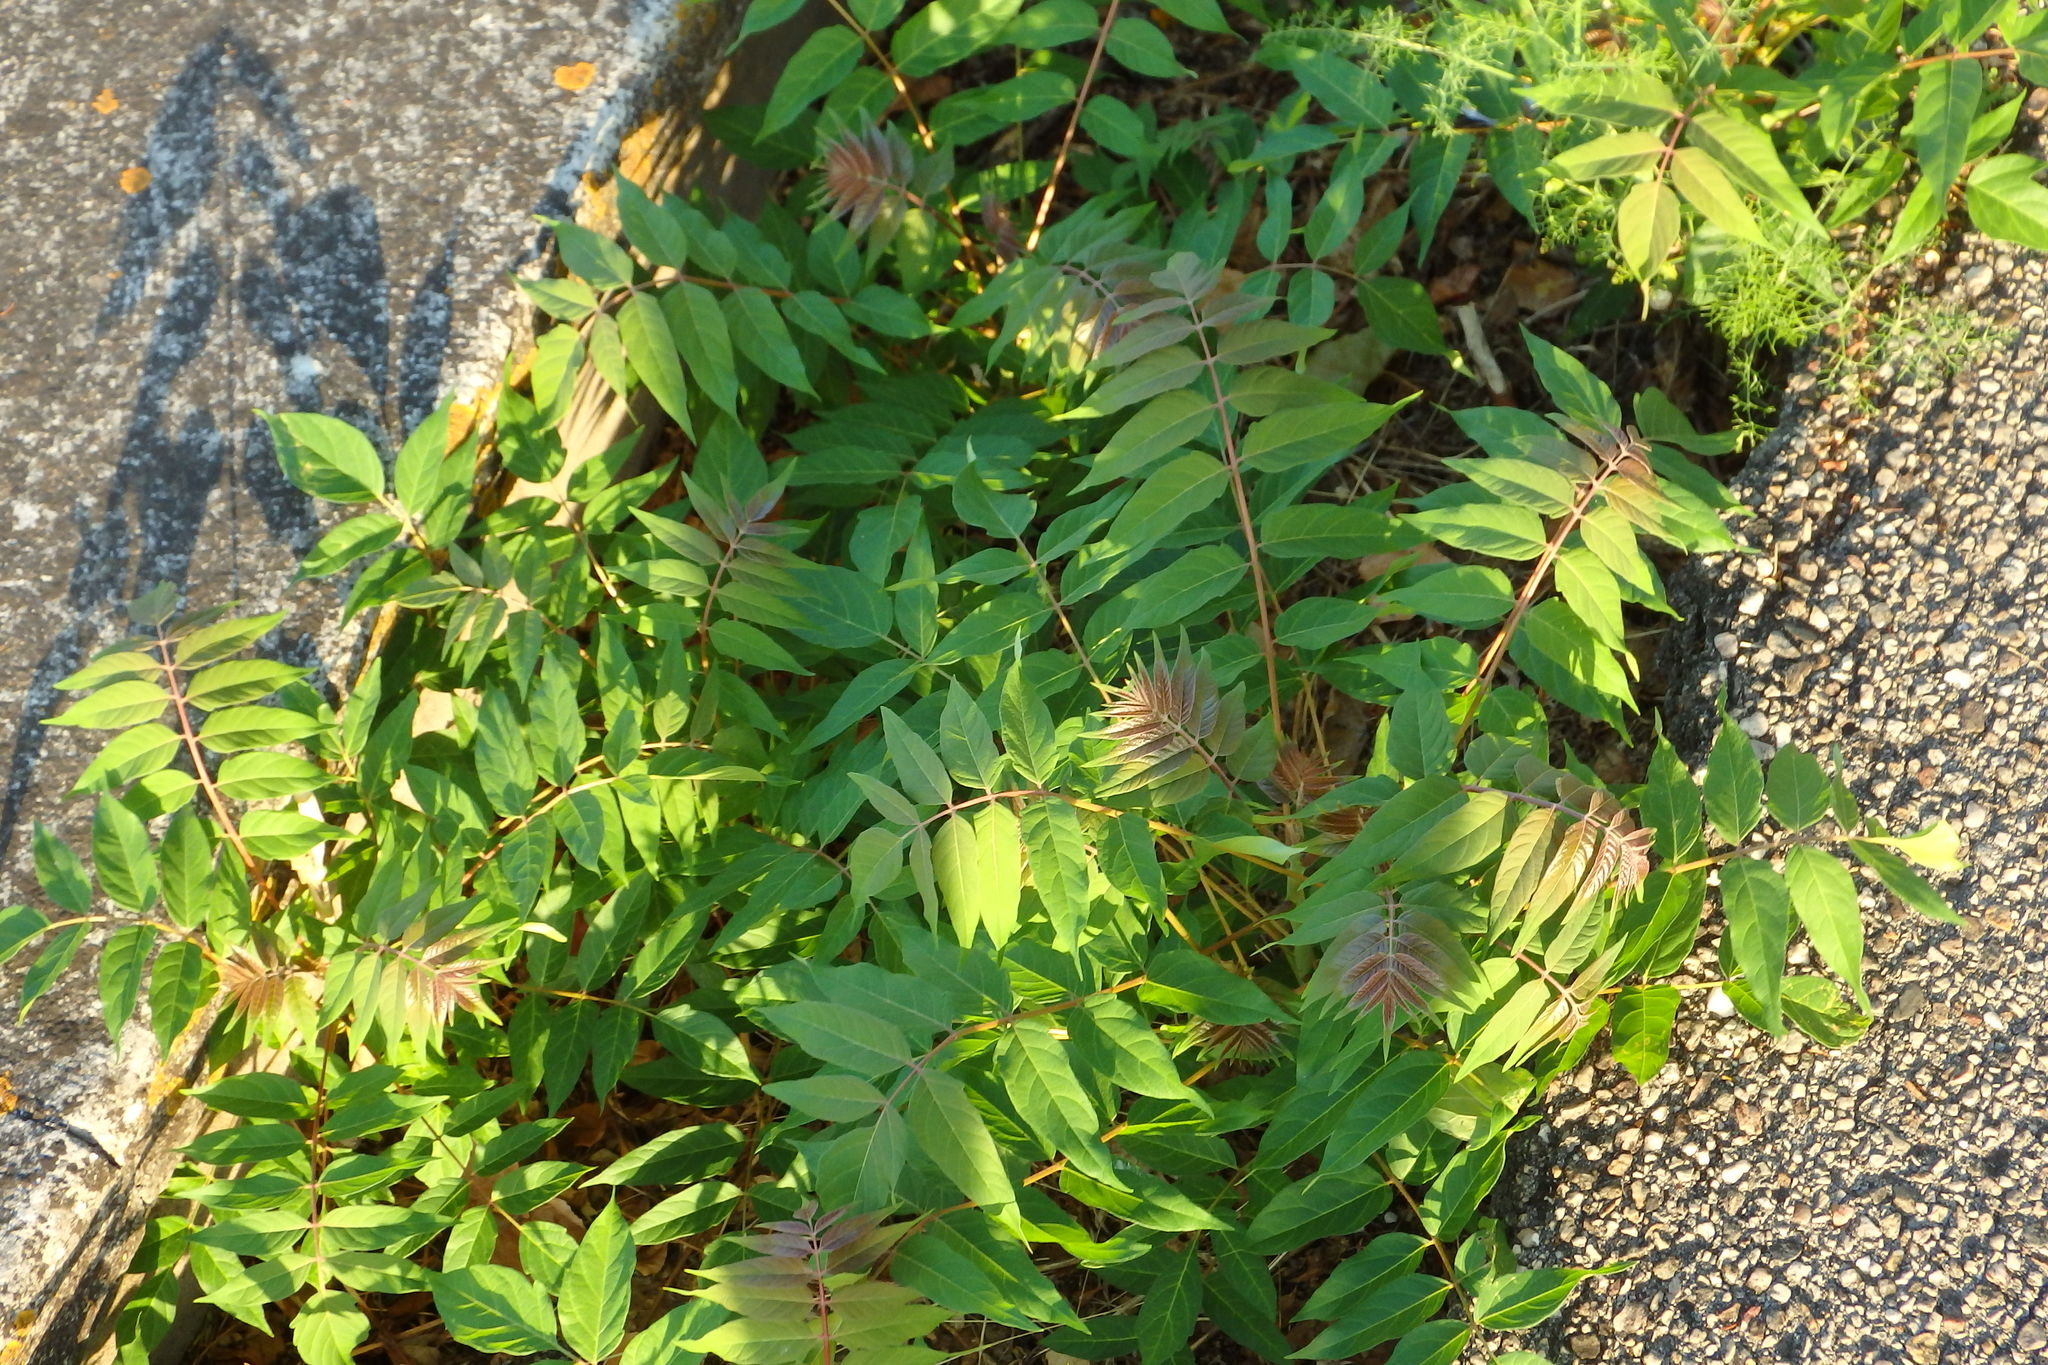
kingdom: Plantae
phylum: Tracheophyta
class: Magnoliopsida
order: Sapindales
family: Simaroubaceae
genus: Ailanthus
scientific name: Ailanthus altissima
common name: Tree-of-heaven
